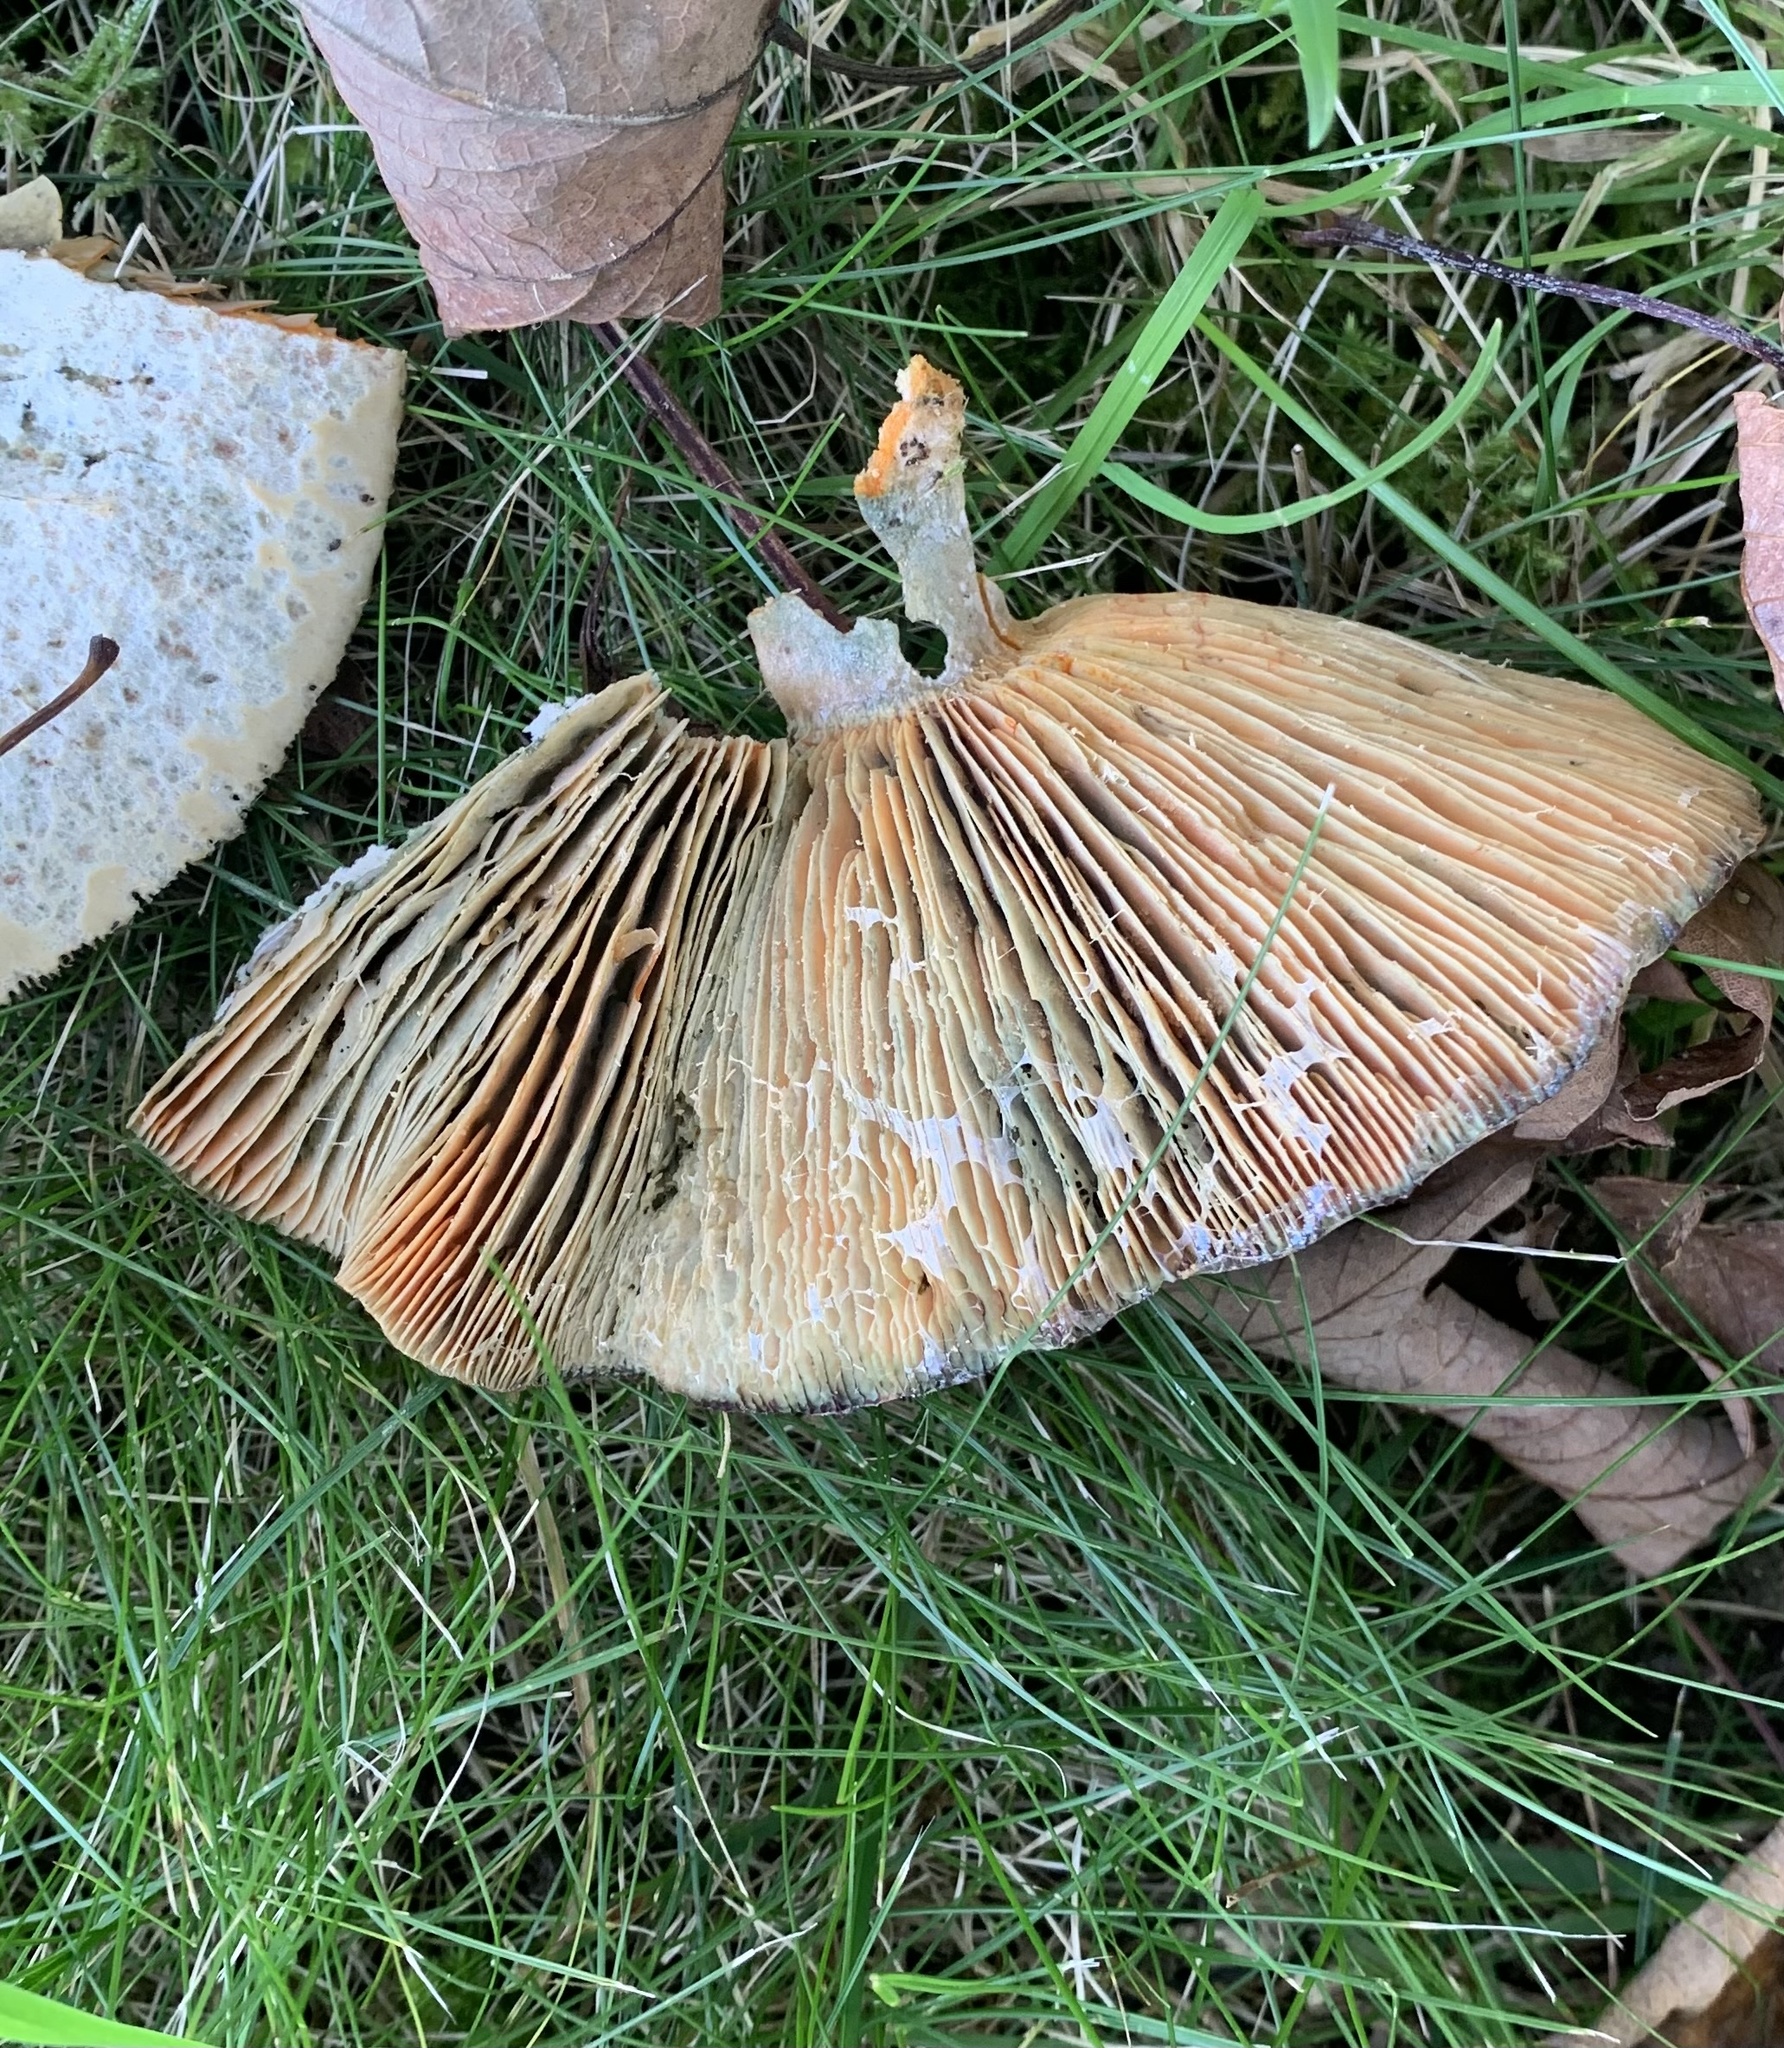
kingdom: Fungi
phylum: Basidiomycota
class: Agaricomycetes
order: Russulales
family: Russulaceae
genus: Lactarius
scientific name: Lactarius deterrimus
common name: False saffron milkcap
